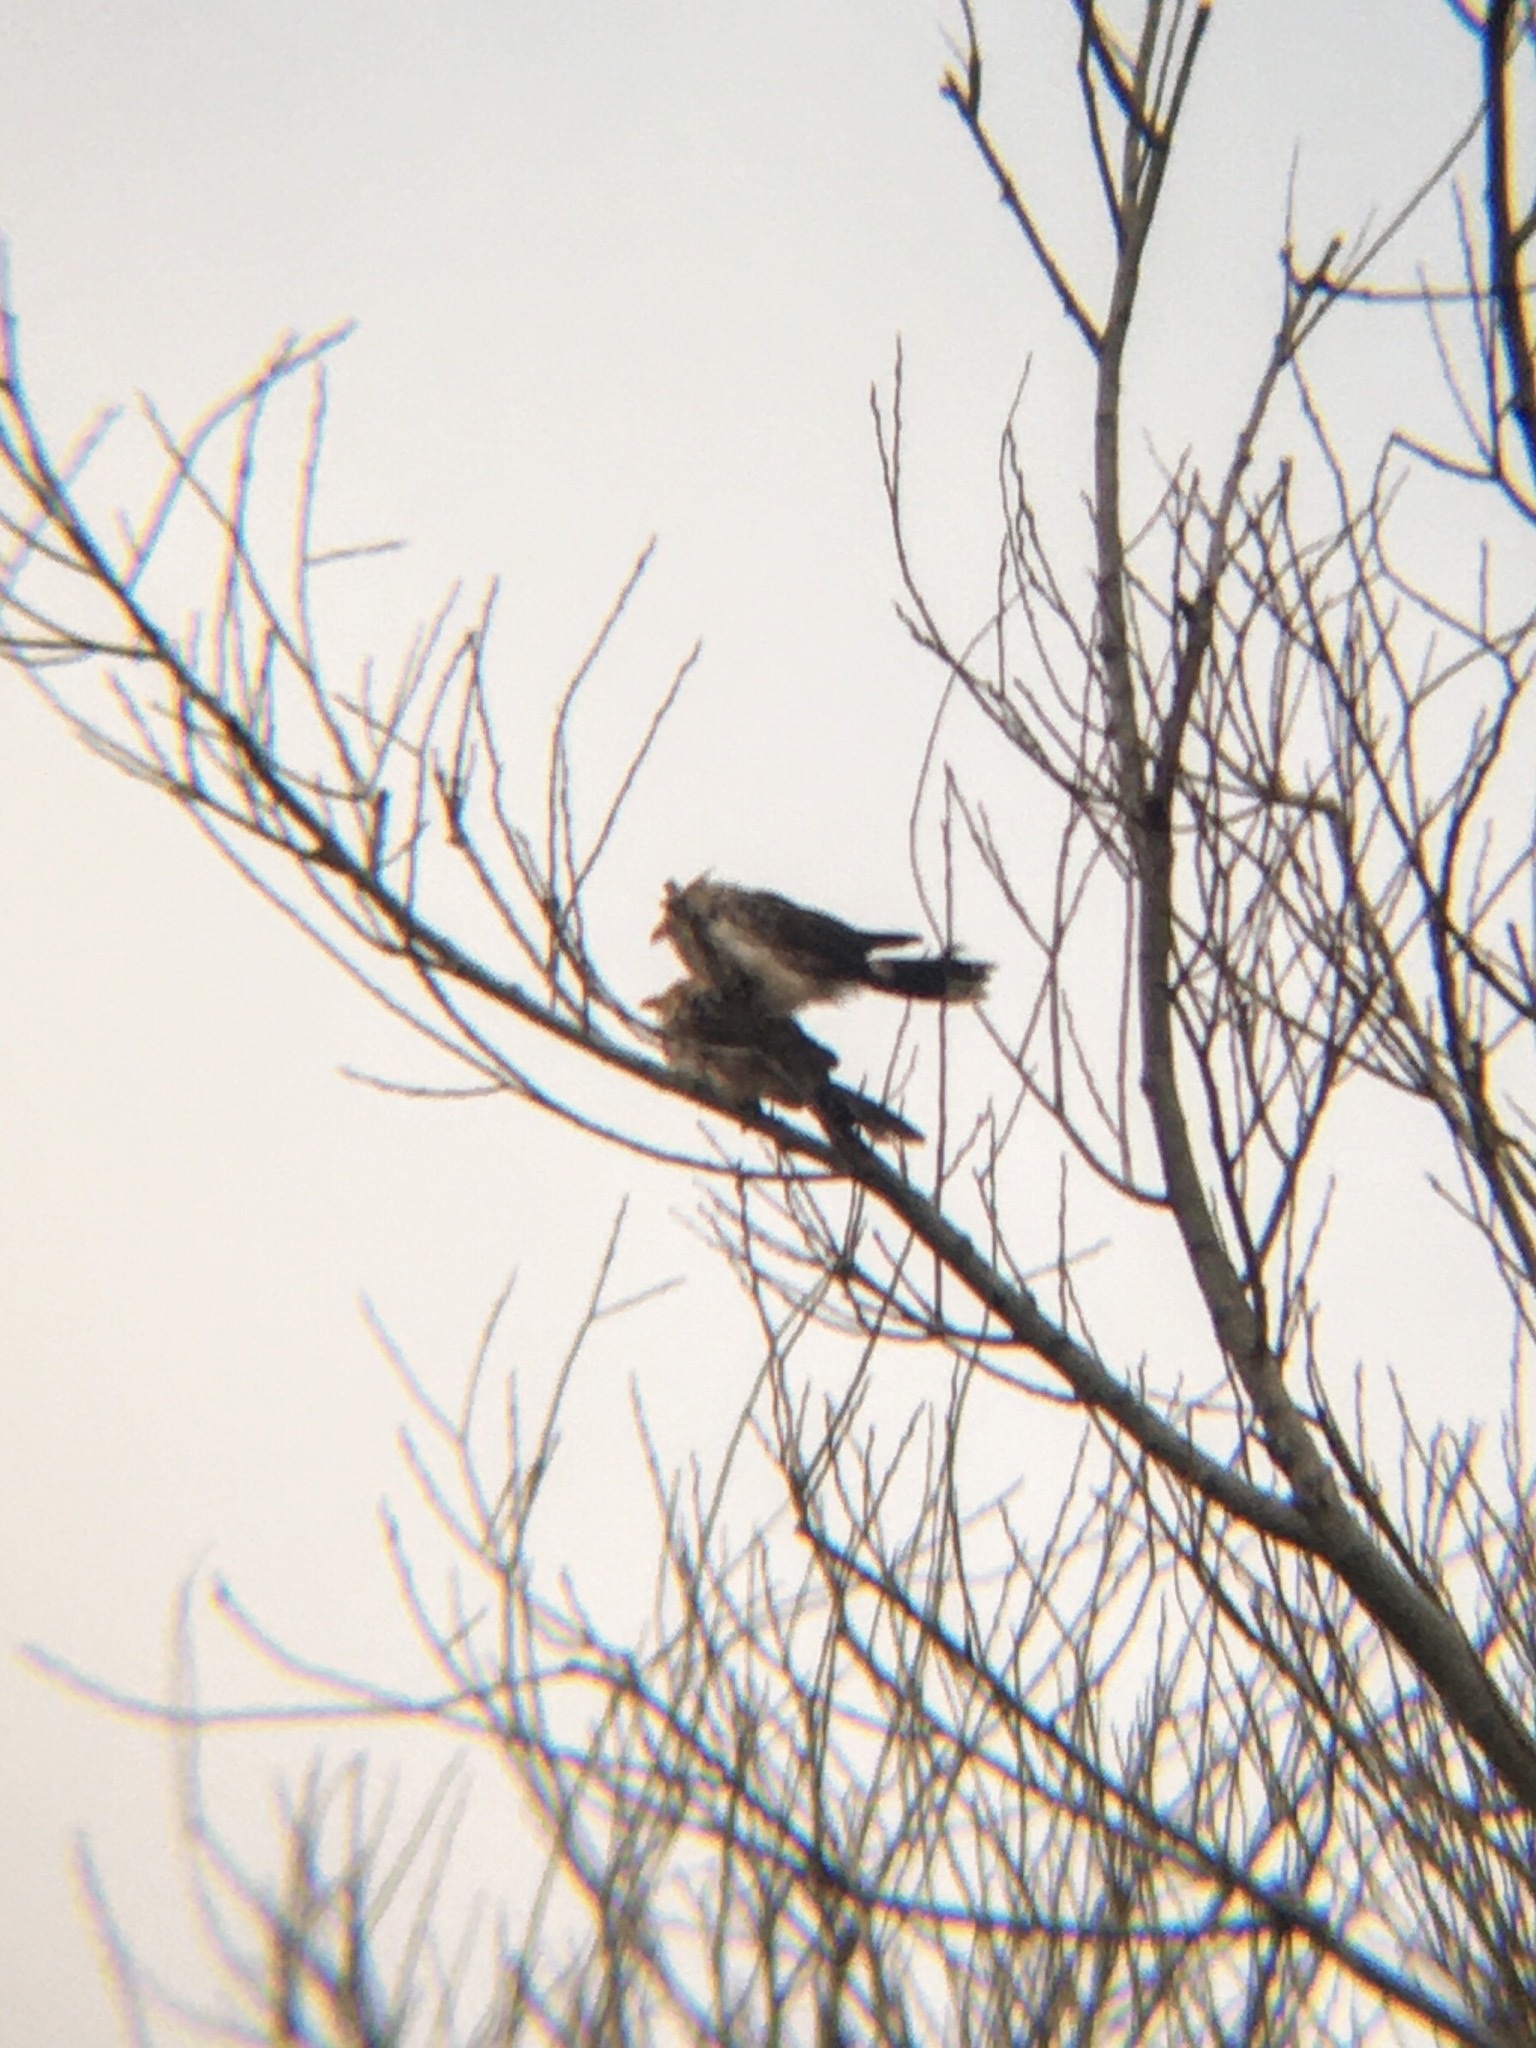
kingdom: Animalia
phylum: Chordata
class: Aves
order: Cuculiformes
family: Cuculidae
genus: Guira
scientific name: Guira guira
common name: Guira cuckoo
